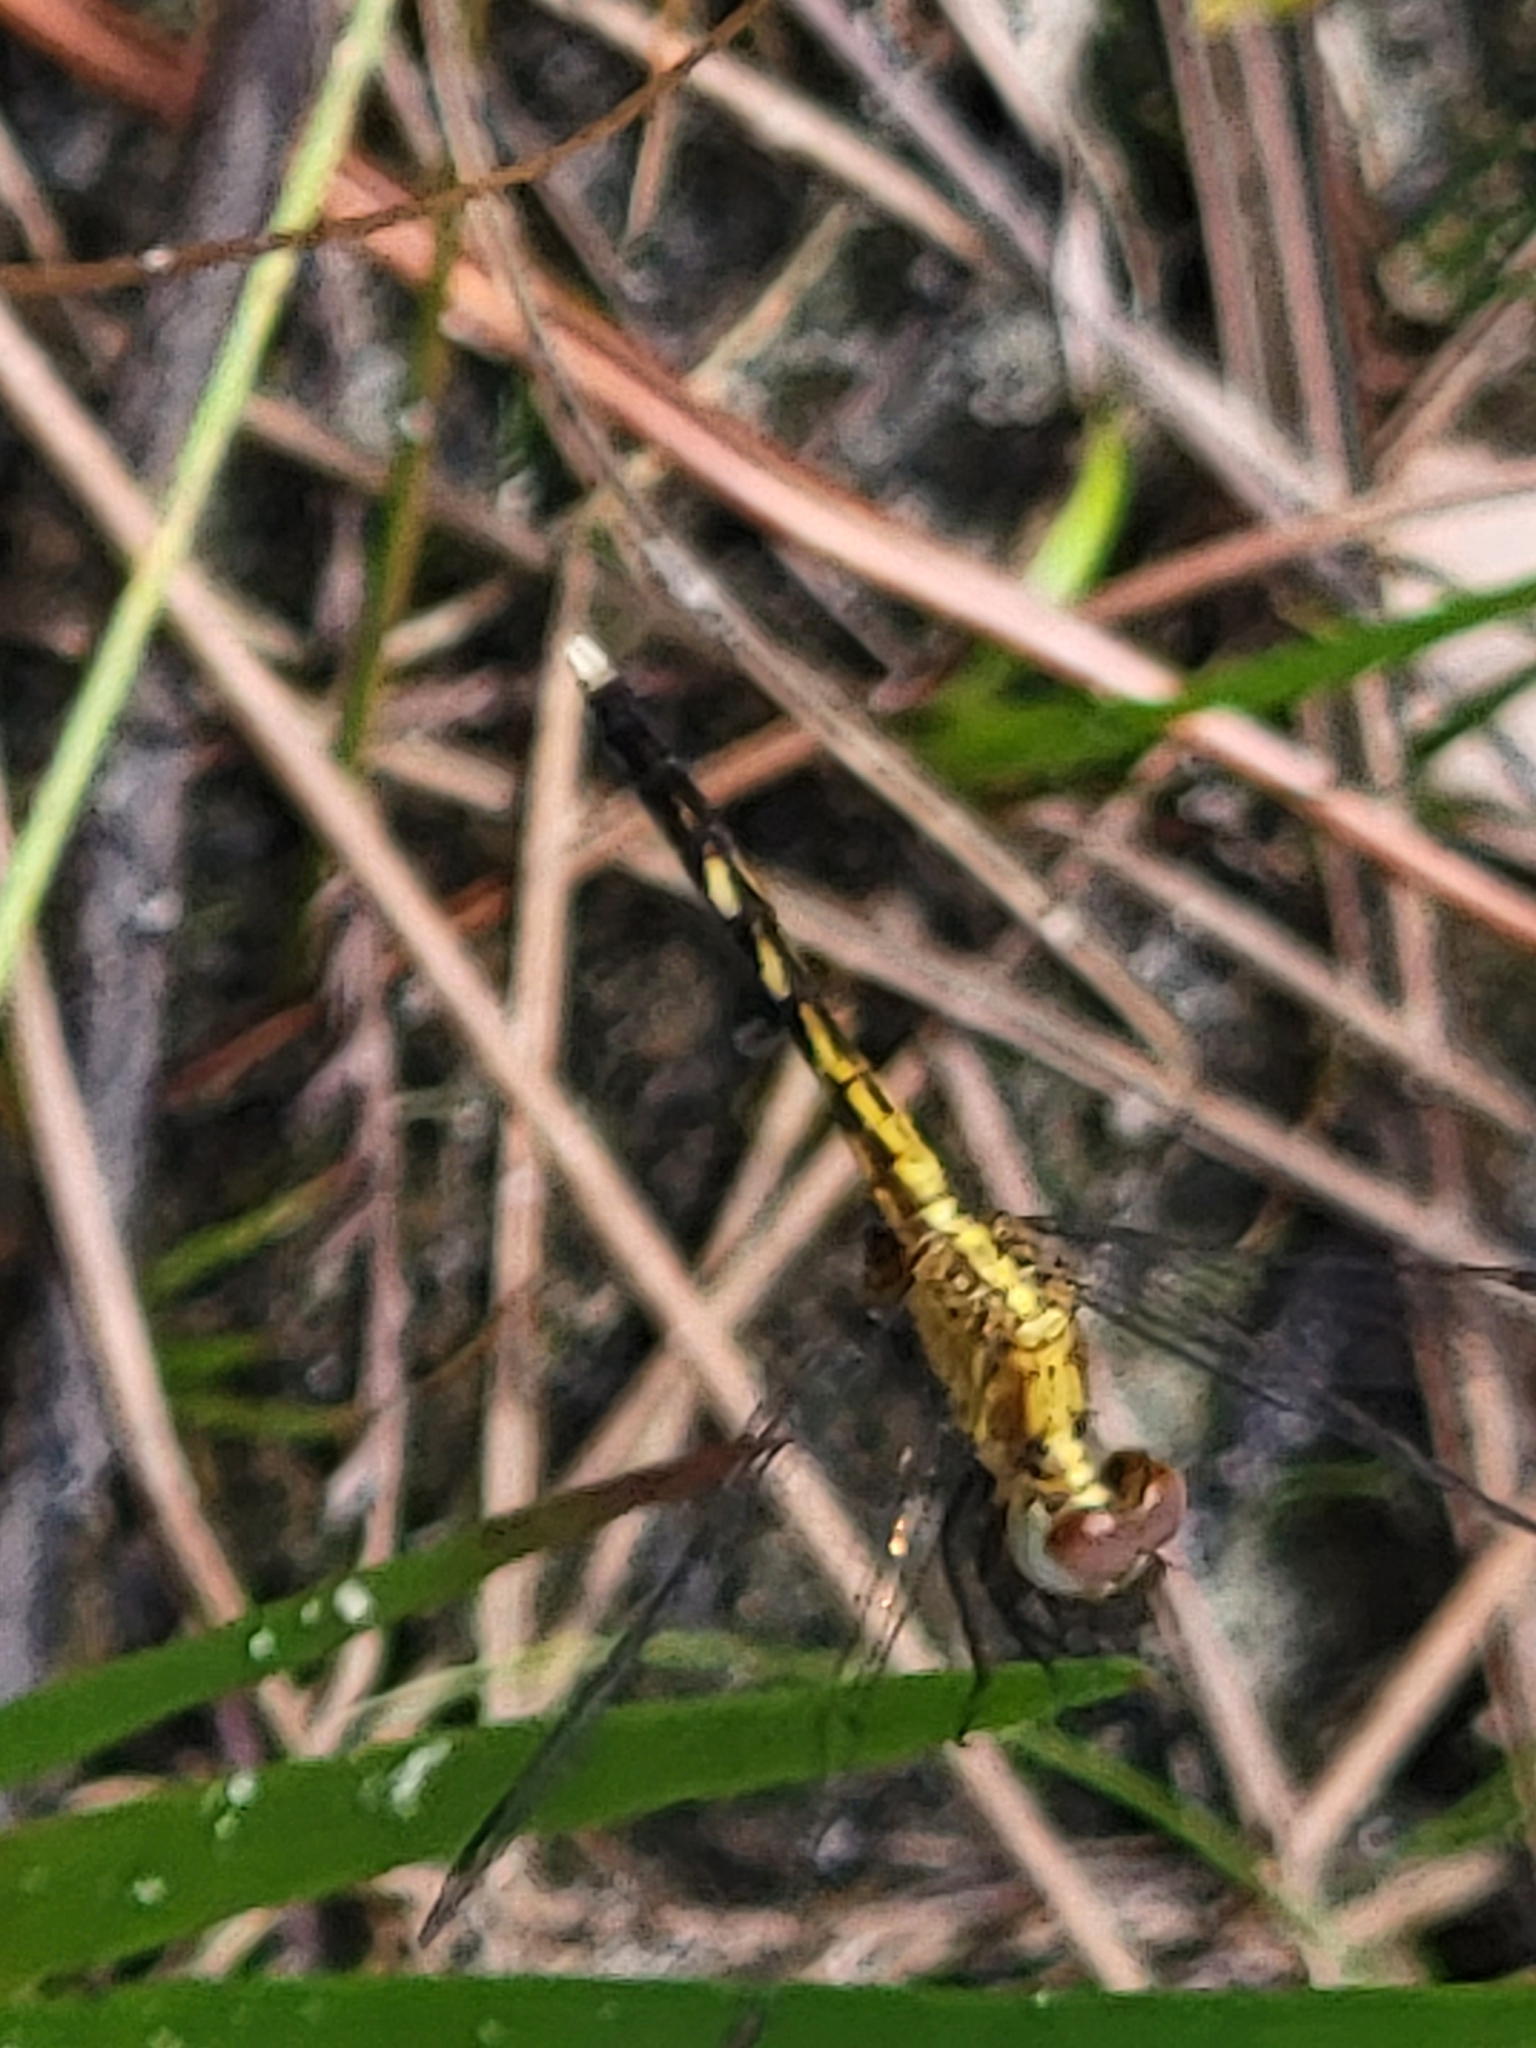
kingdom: Animalia
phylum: Arthropoda
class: Insecta
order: Odonata
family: Libellulidae
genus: Erythrodiplax
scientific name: Erythrodiplax minuscula
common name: Little blue dragonlet
